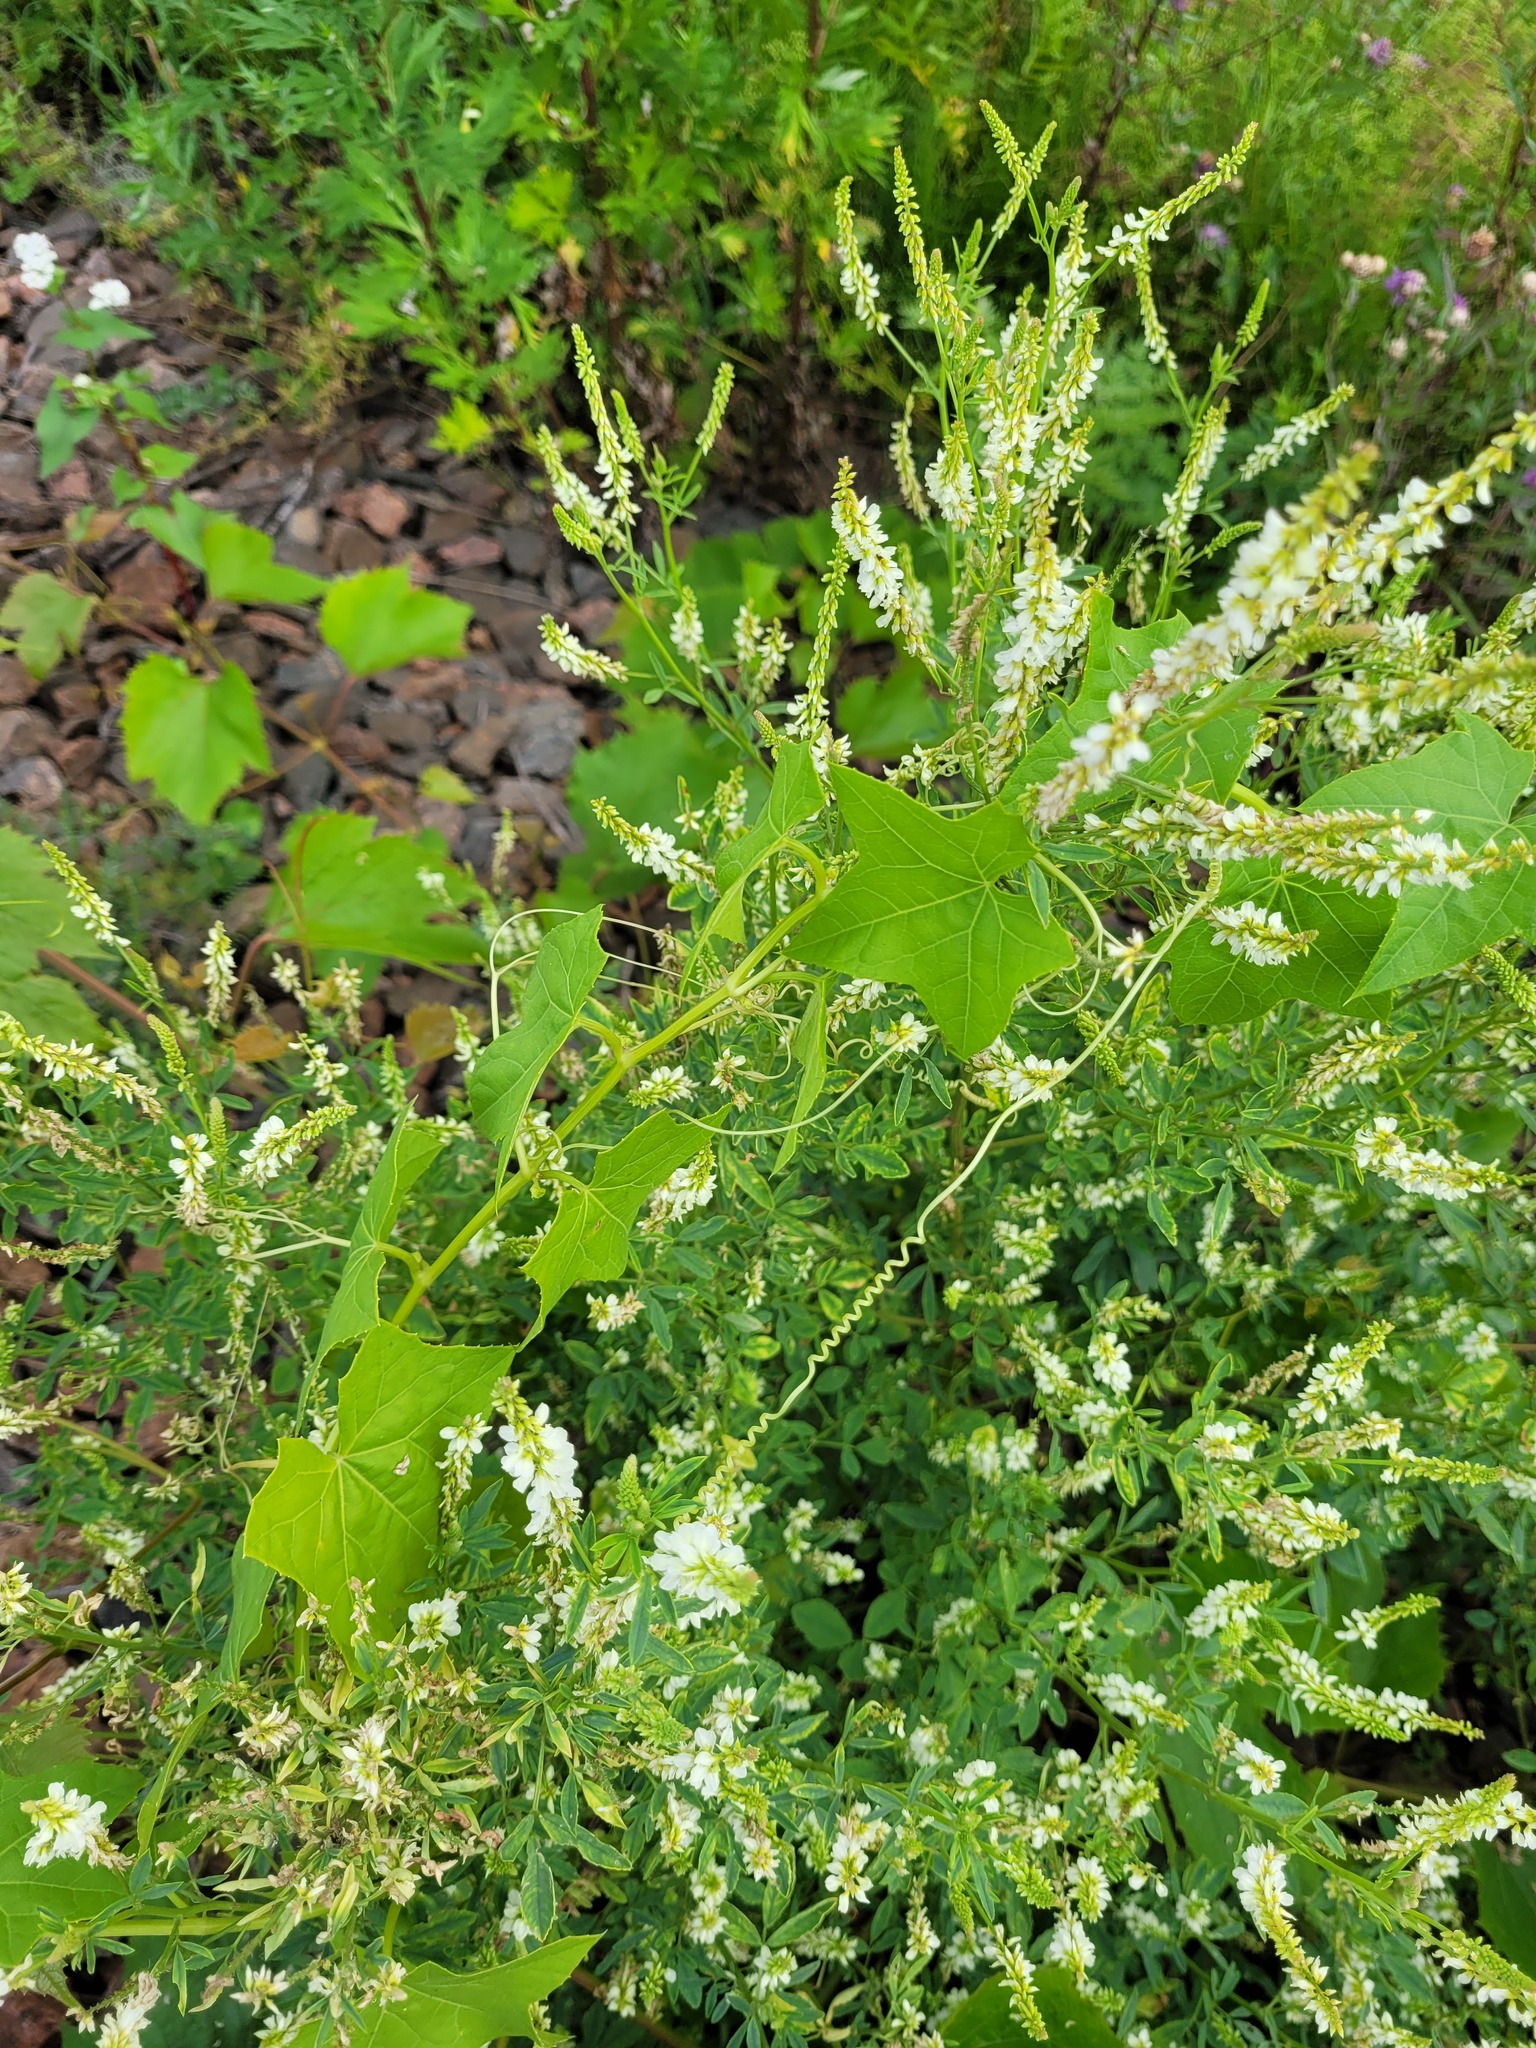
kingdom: Plantae
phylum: Tracheophyta
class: Magnoliopsida
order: Fabales
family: Fabaceae
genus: Melilotus
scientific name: Melilotus albus
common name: White melilot
